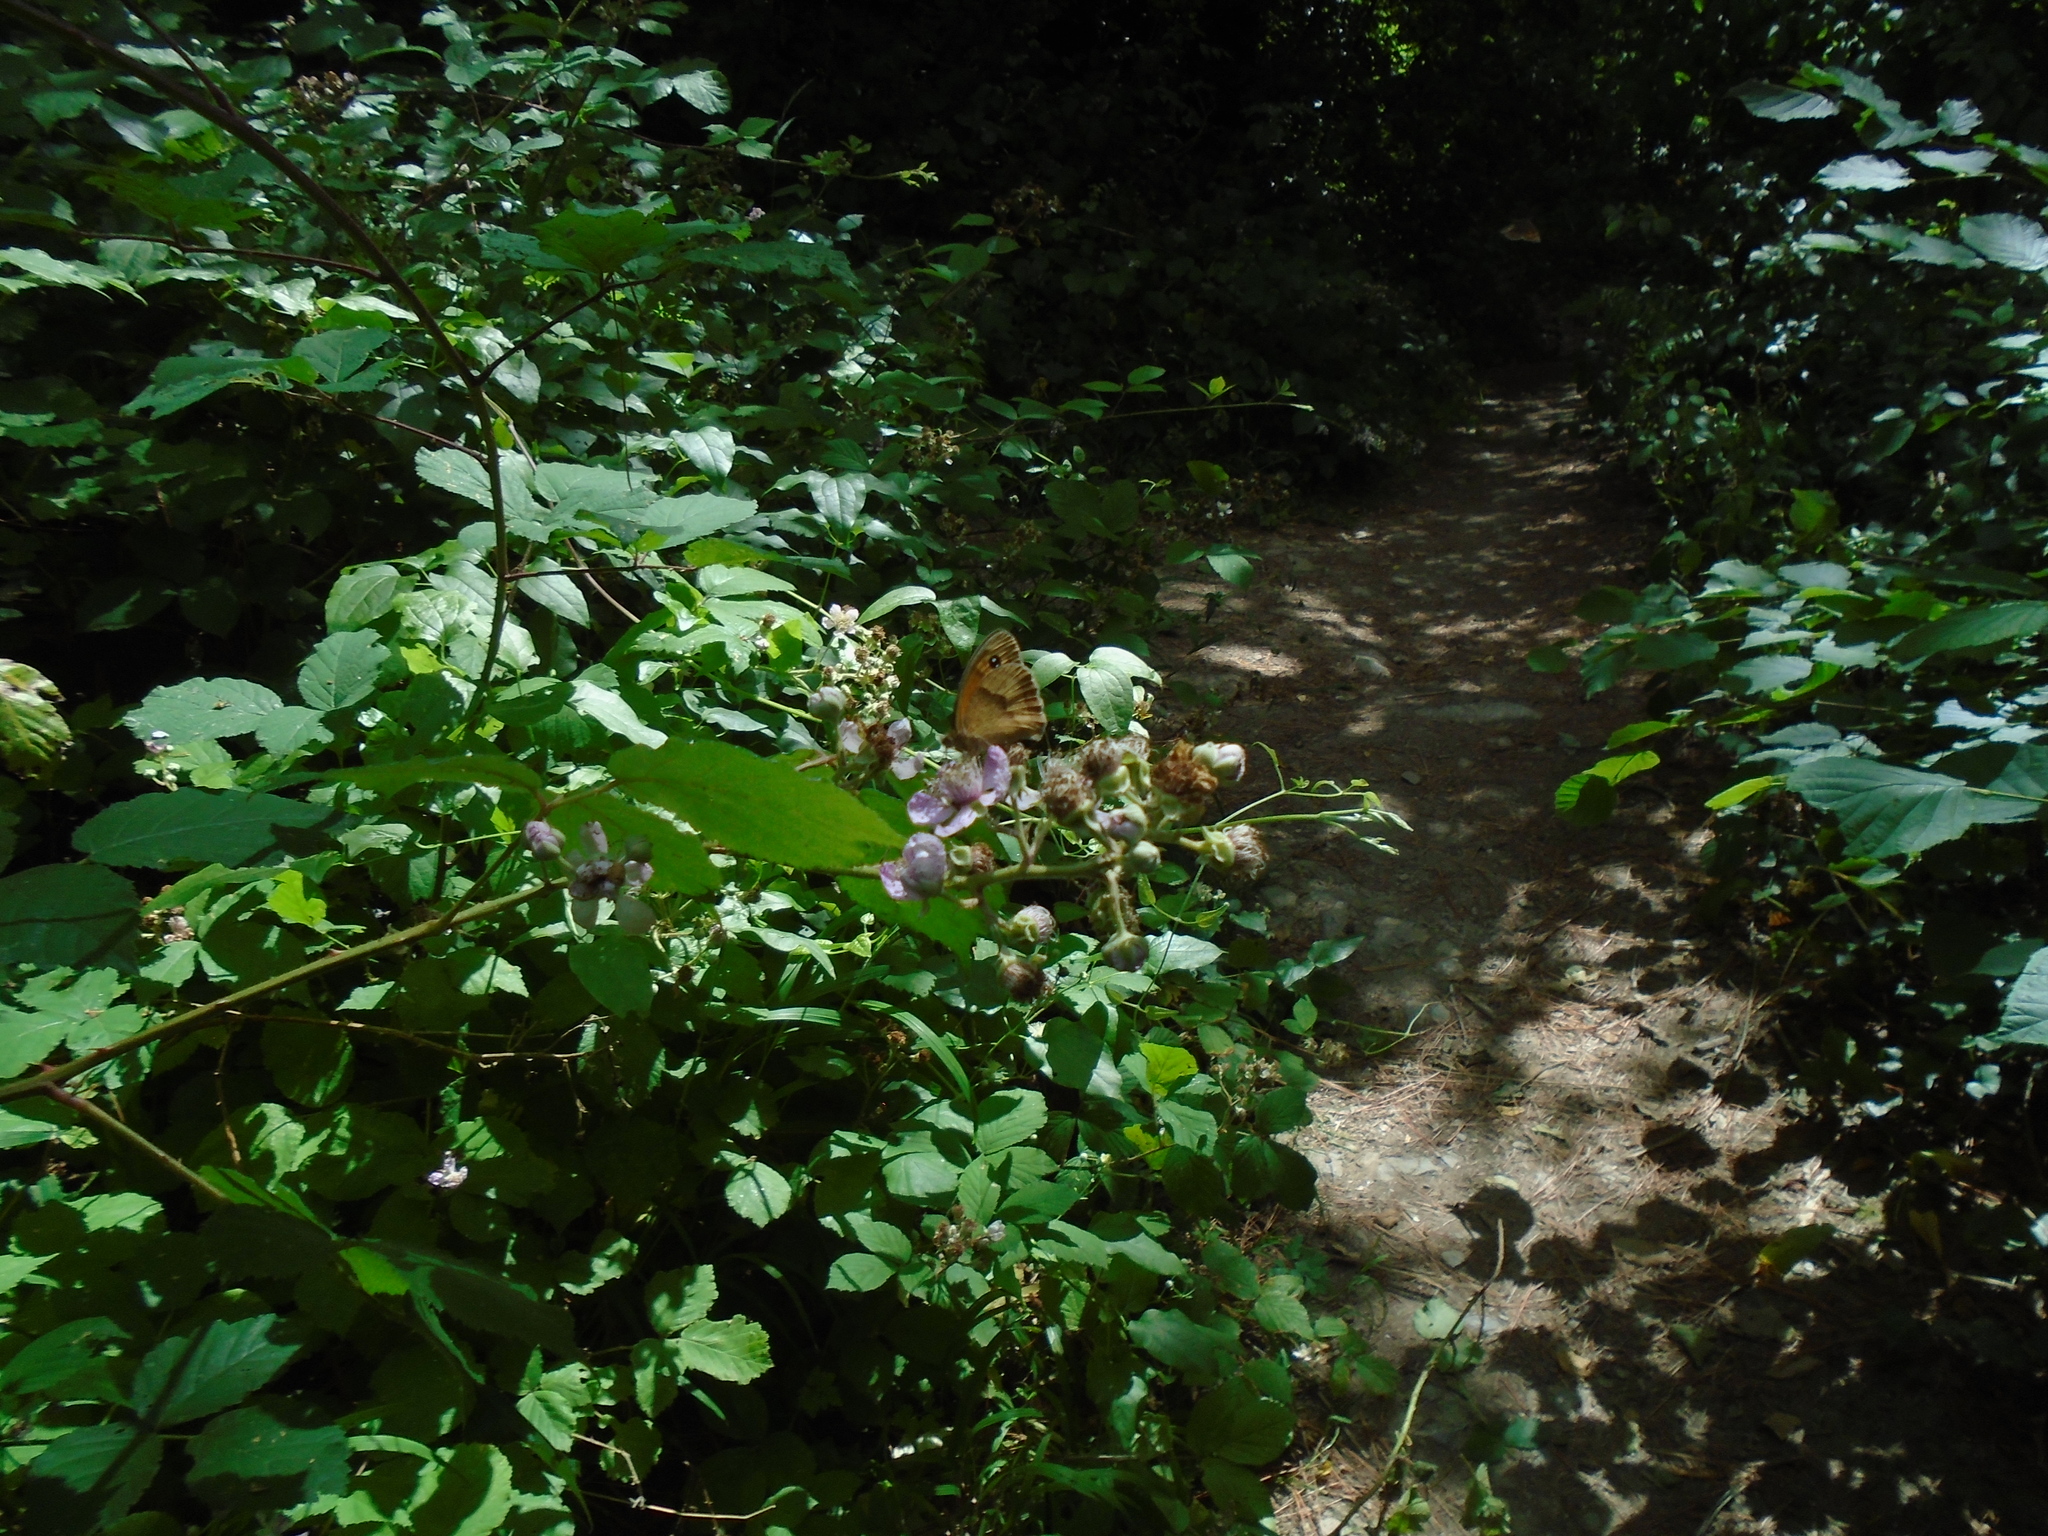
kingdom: Animalia
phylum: Arthropoda
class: Insecta
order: Lepidoptera
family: Nymphalidae
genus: Maniola
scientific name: Maniola jurtina
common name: Meadow brown
